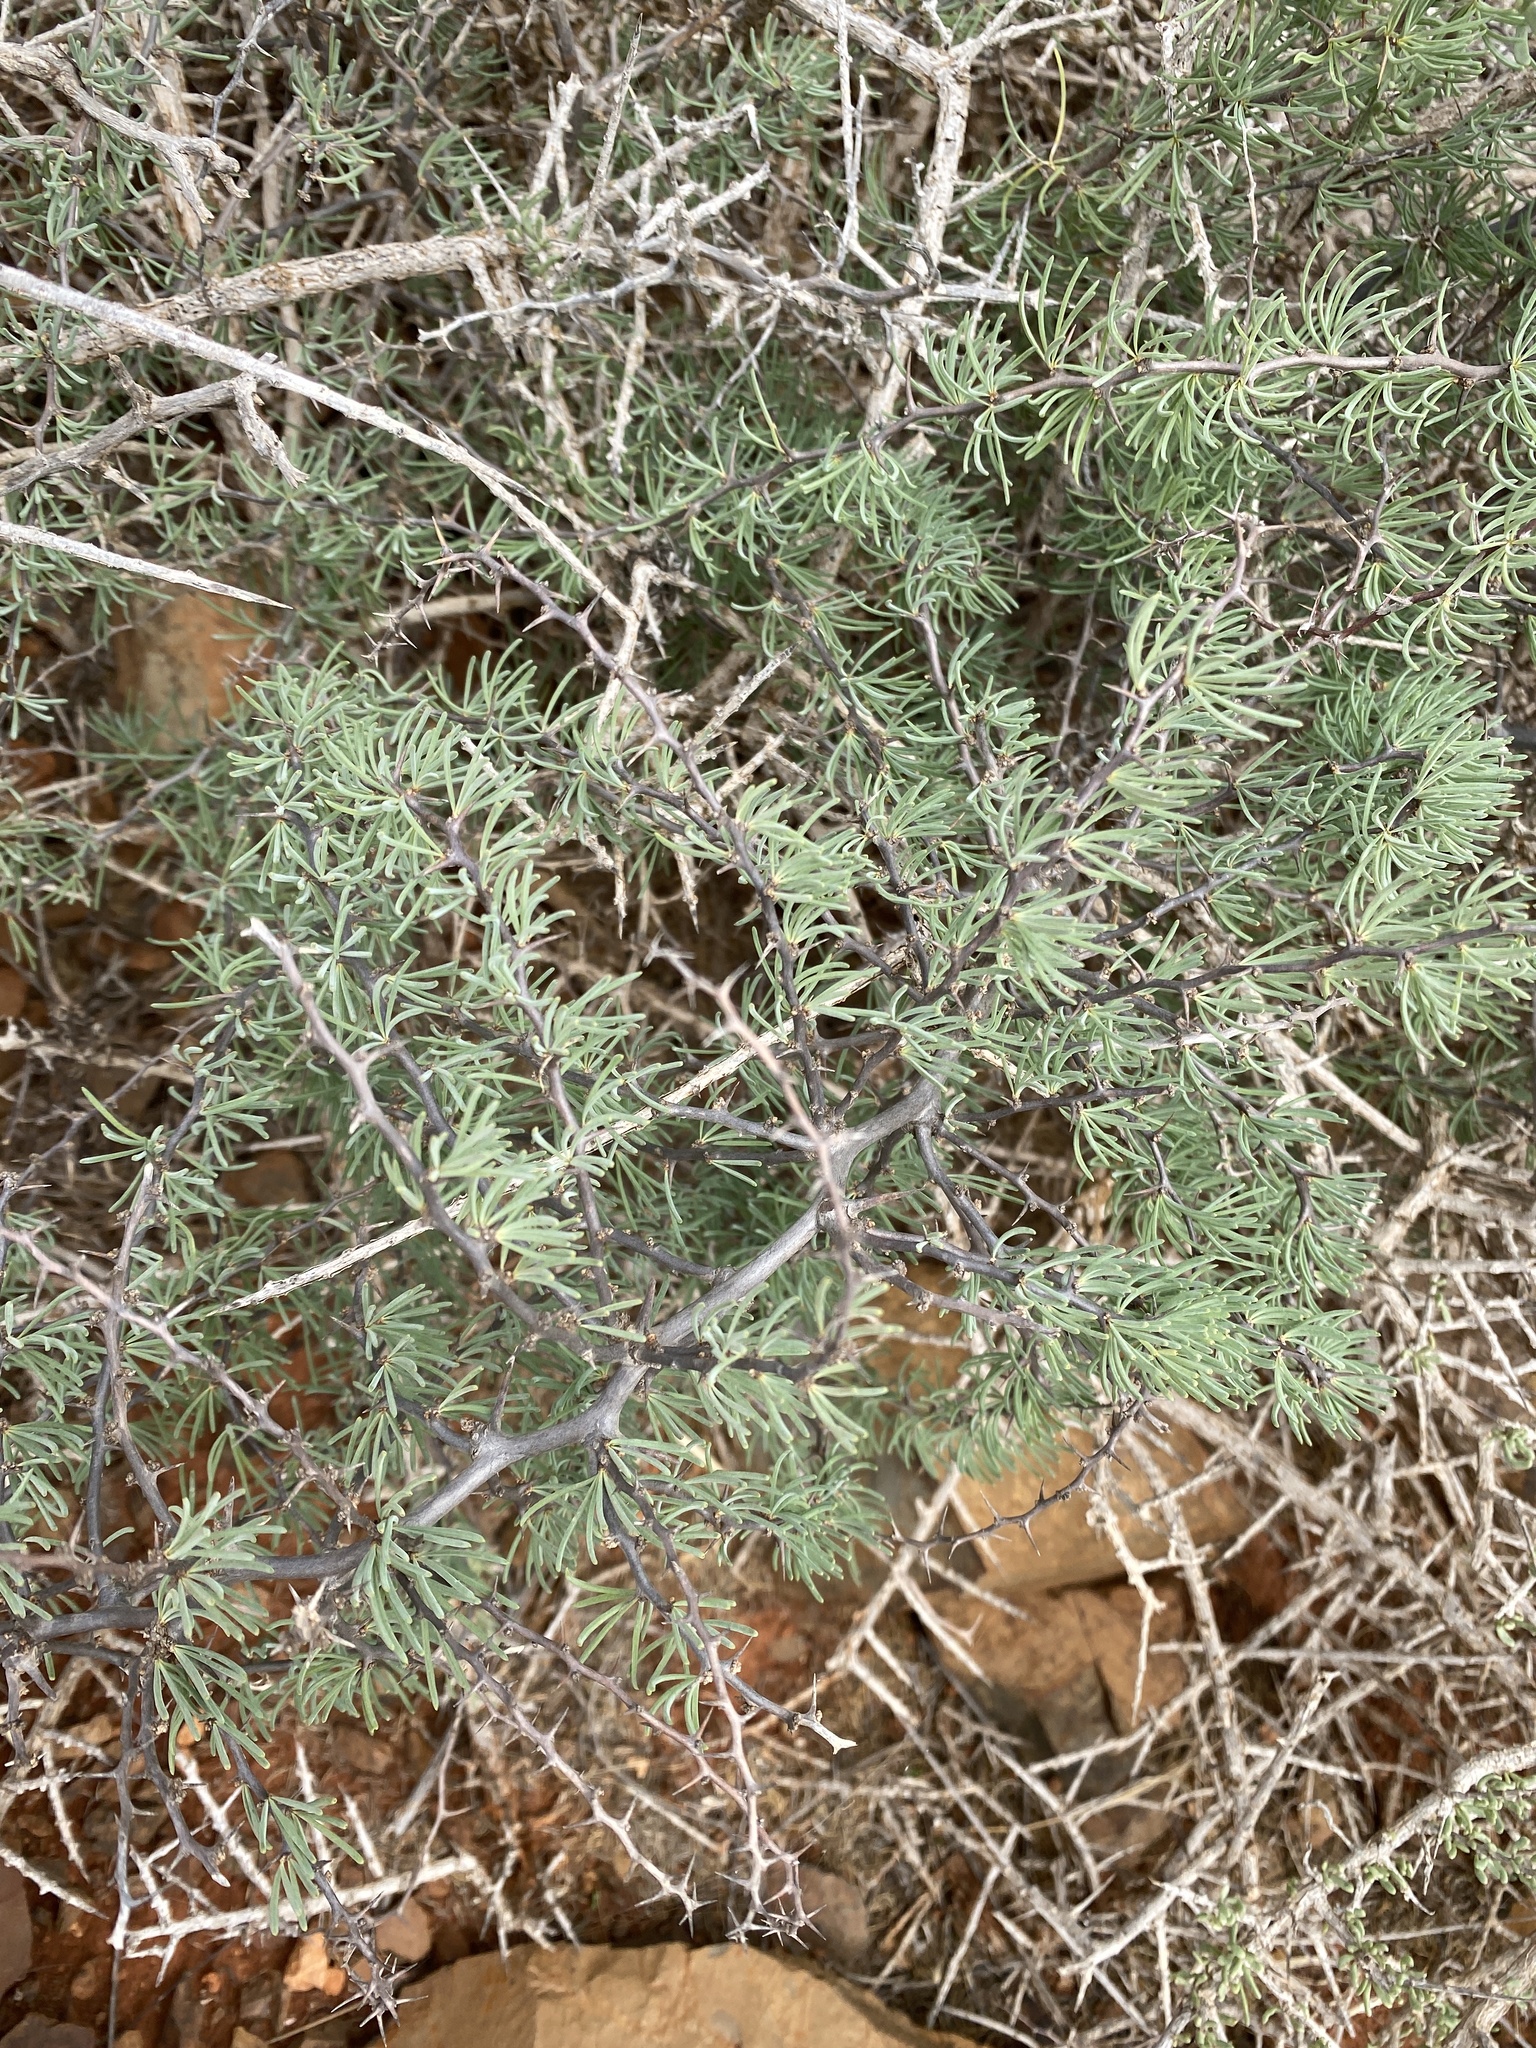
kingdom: Plantae
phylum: Tracheophyta
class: Liliopsida
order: Asparagales
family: Asparagaceae
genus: Asparagus
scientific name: Asparagus pastorianus
